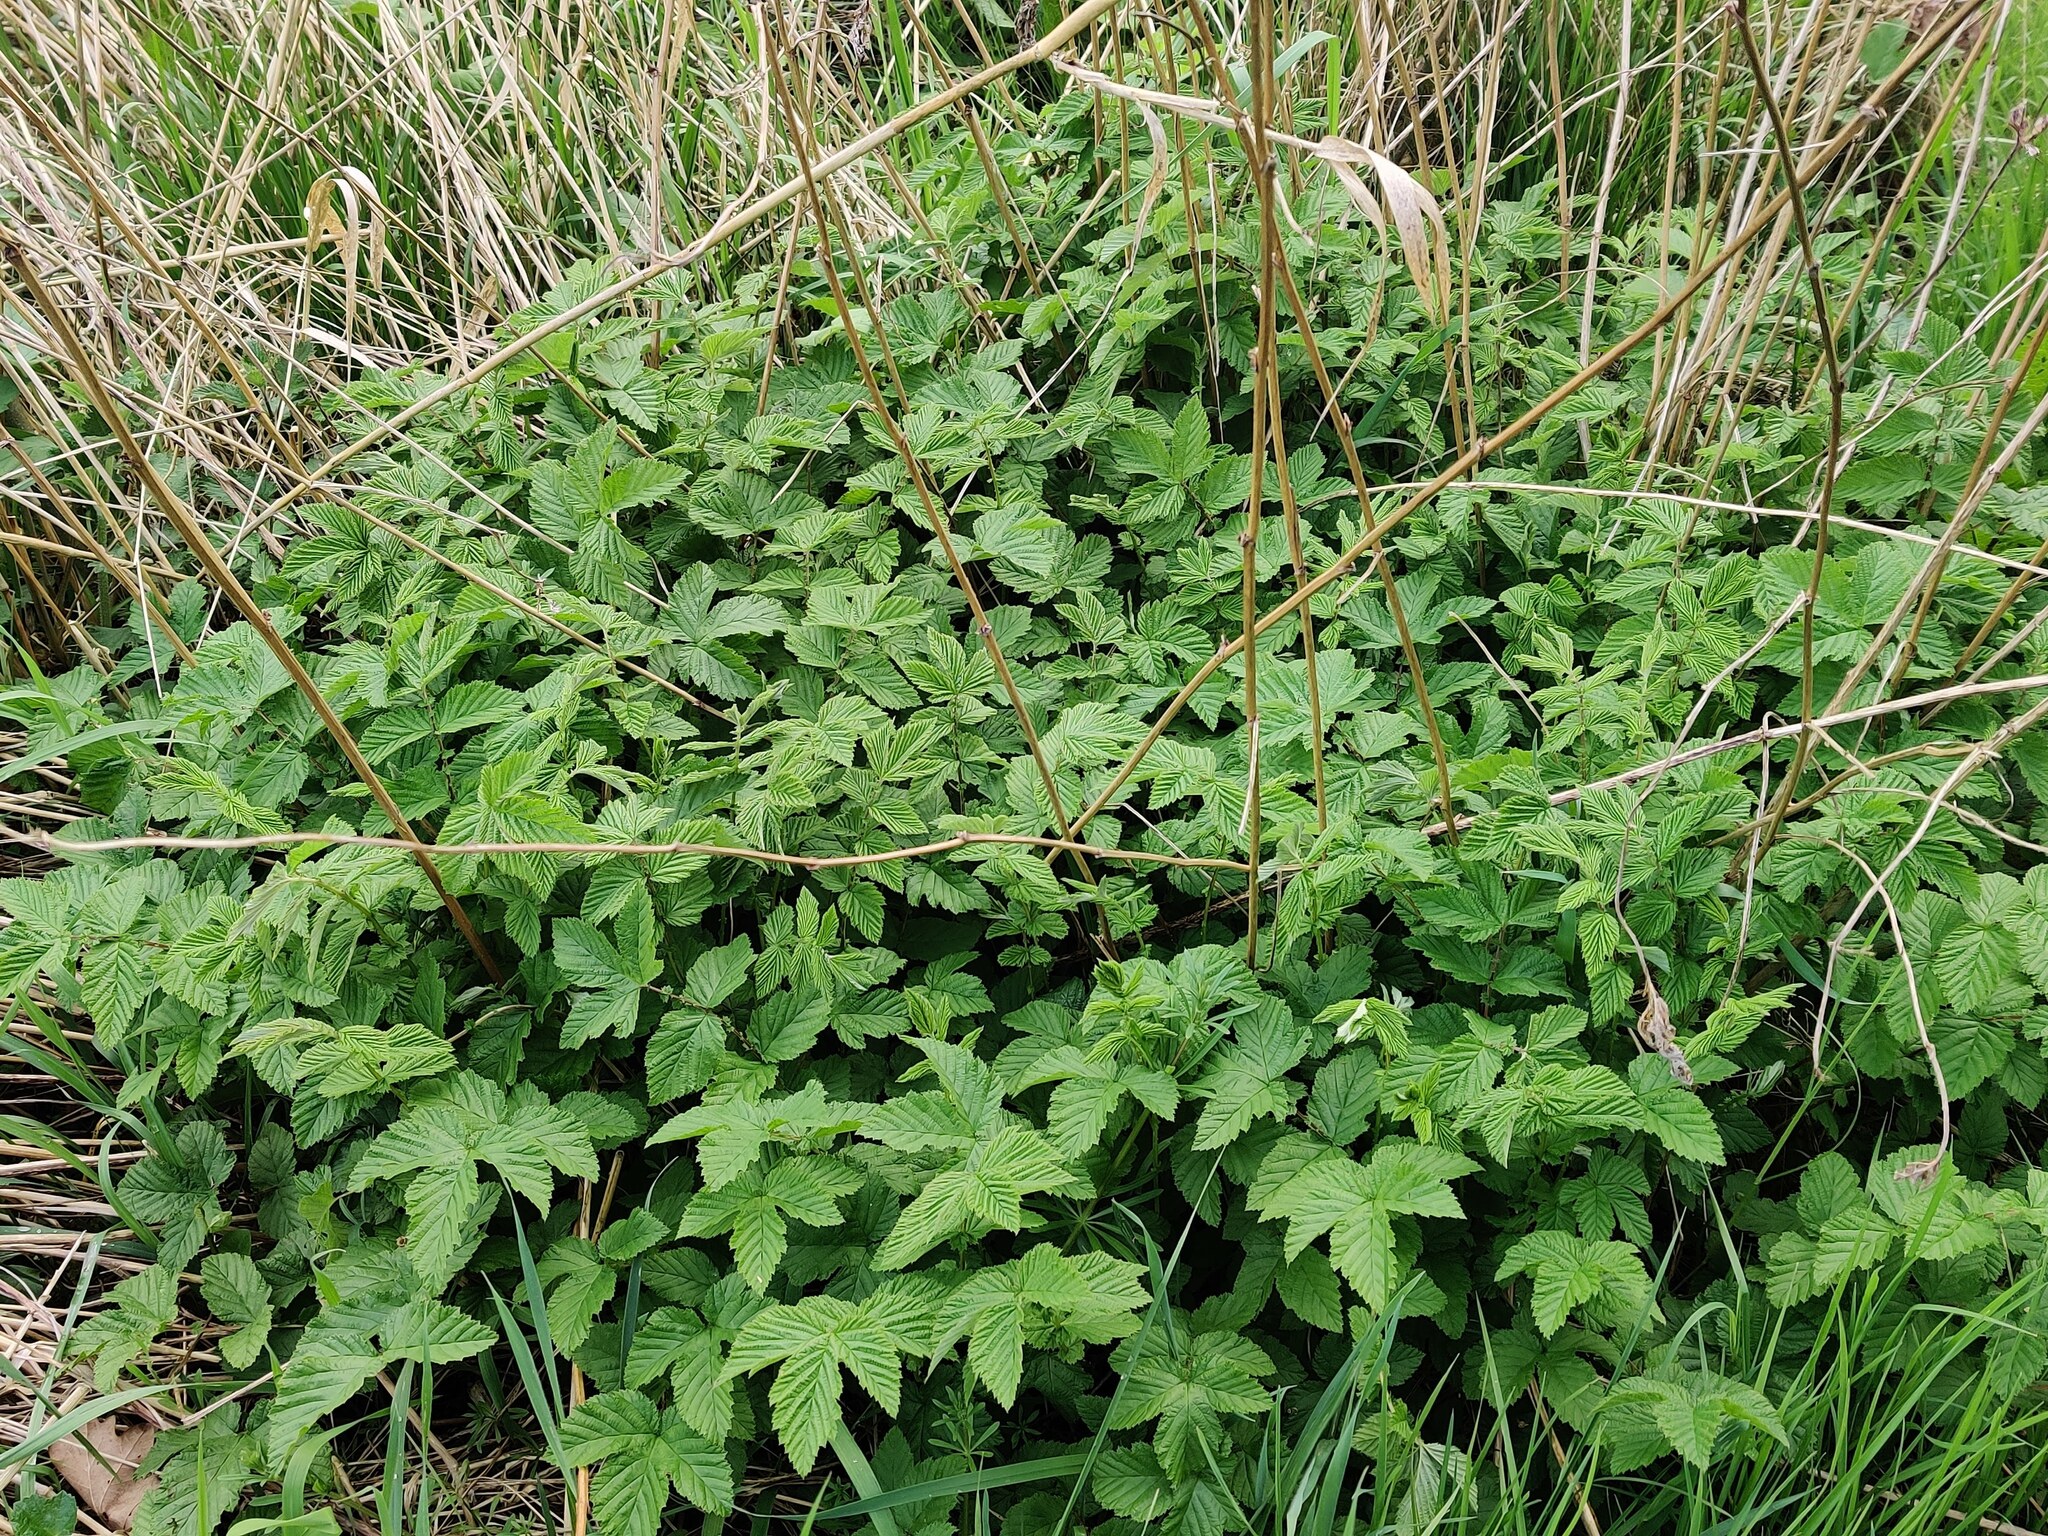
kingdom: Plantae
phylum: Tracheophyta
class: Magnoliopsida
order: Rosales
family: Rosaceae
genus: Filipendula
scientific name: Filipendula ulmaria
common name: Meadowsweet
